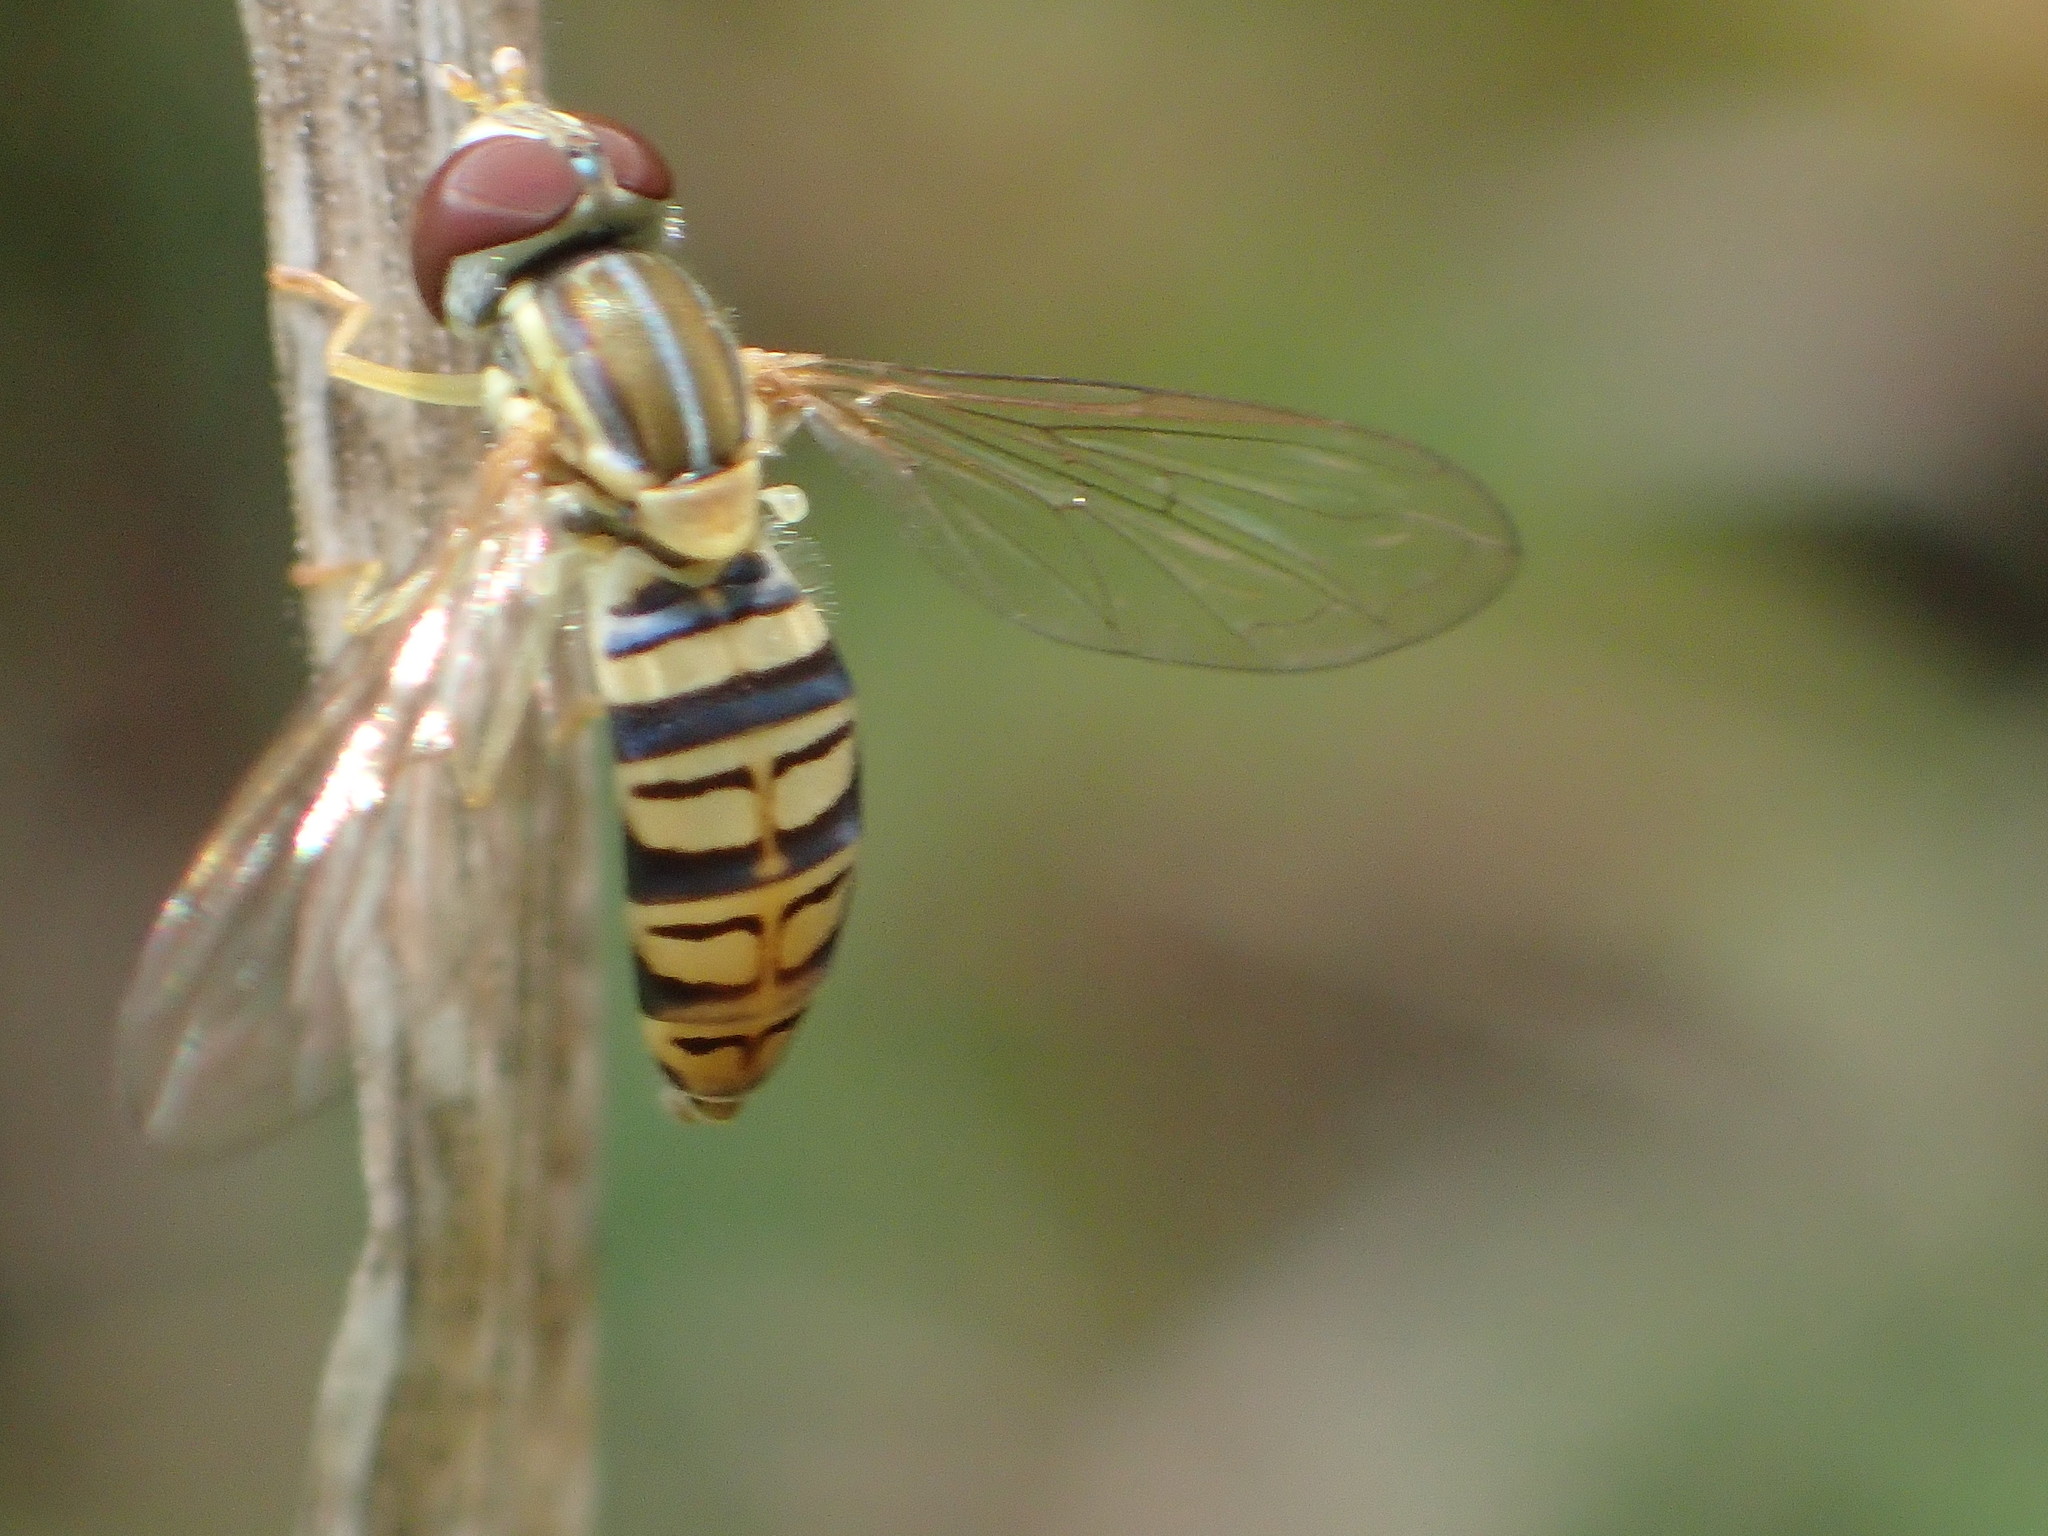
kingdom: Animalia
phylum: Arthropoda
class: Insecta
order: Diptera
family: Syrphidae
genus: Toxomerus
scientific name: Toxomerus politus
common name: Maize calligrapher
